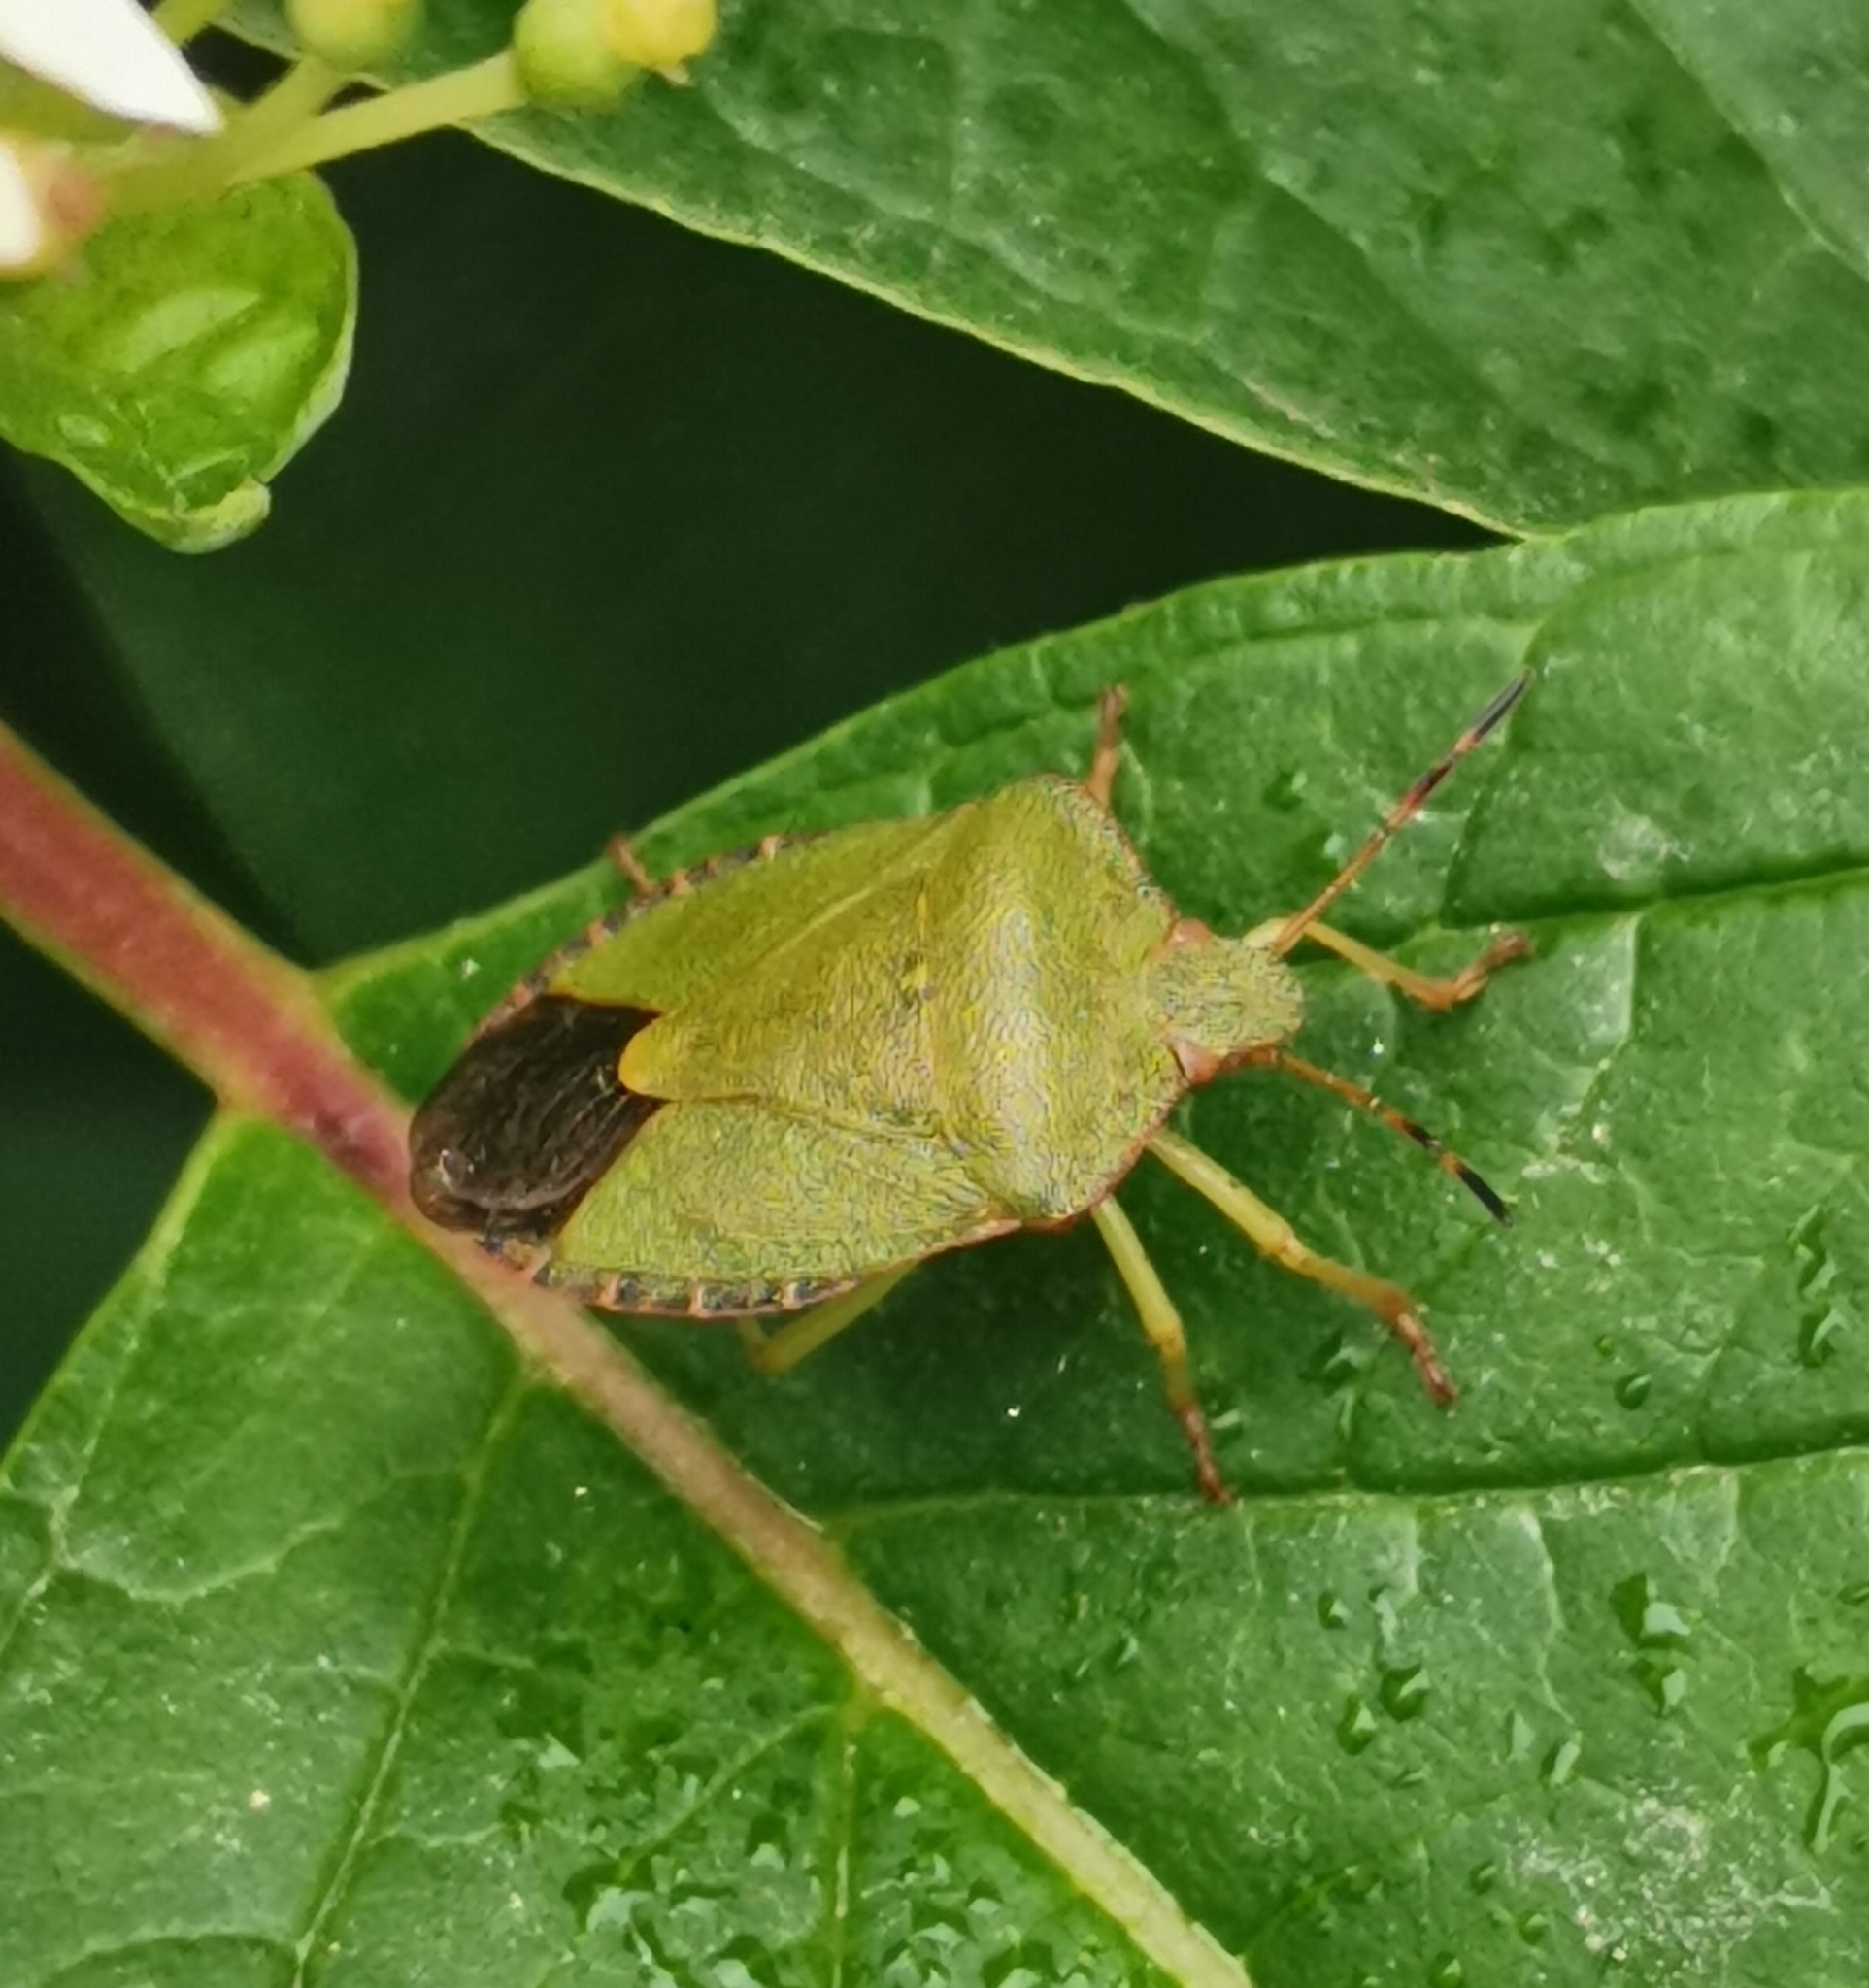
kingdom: Animalia
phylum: Arthropoda
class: Insecta
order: Hemiptera
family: Pentatomidae
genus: Palomena
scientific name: Palomena prasina
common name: Green shieldbug
